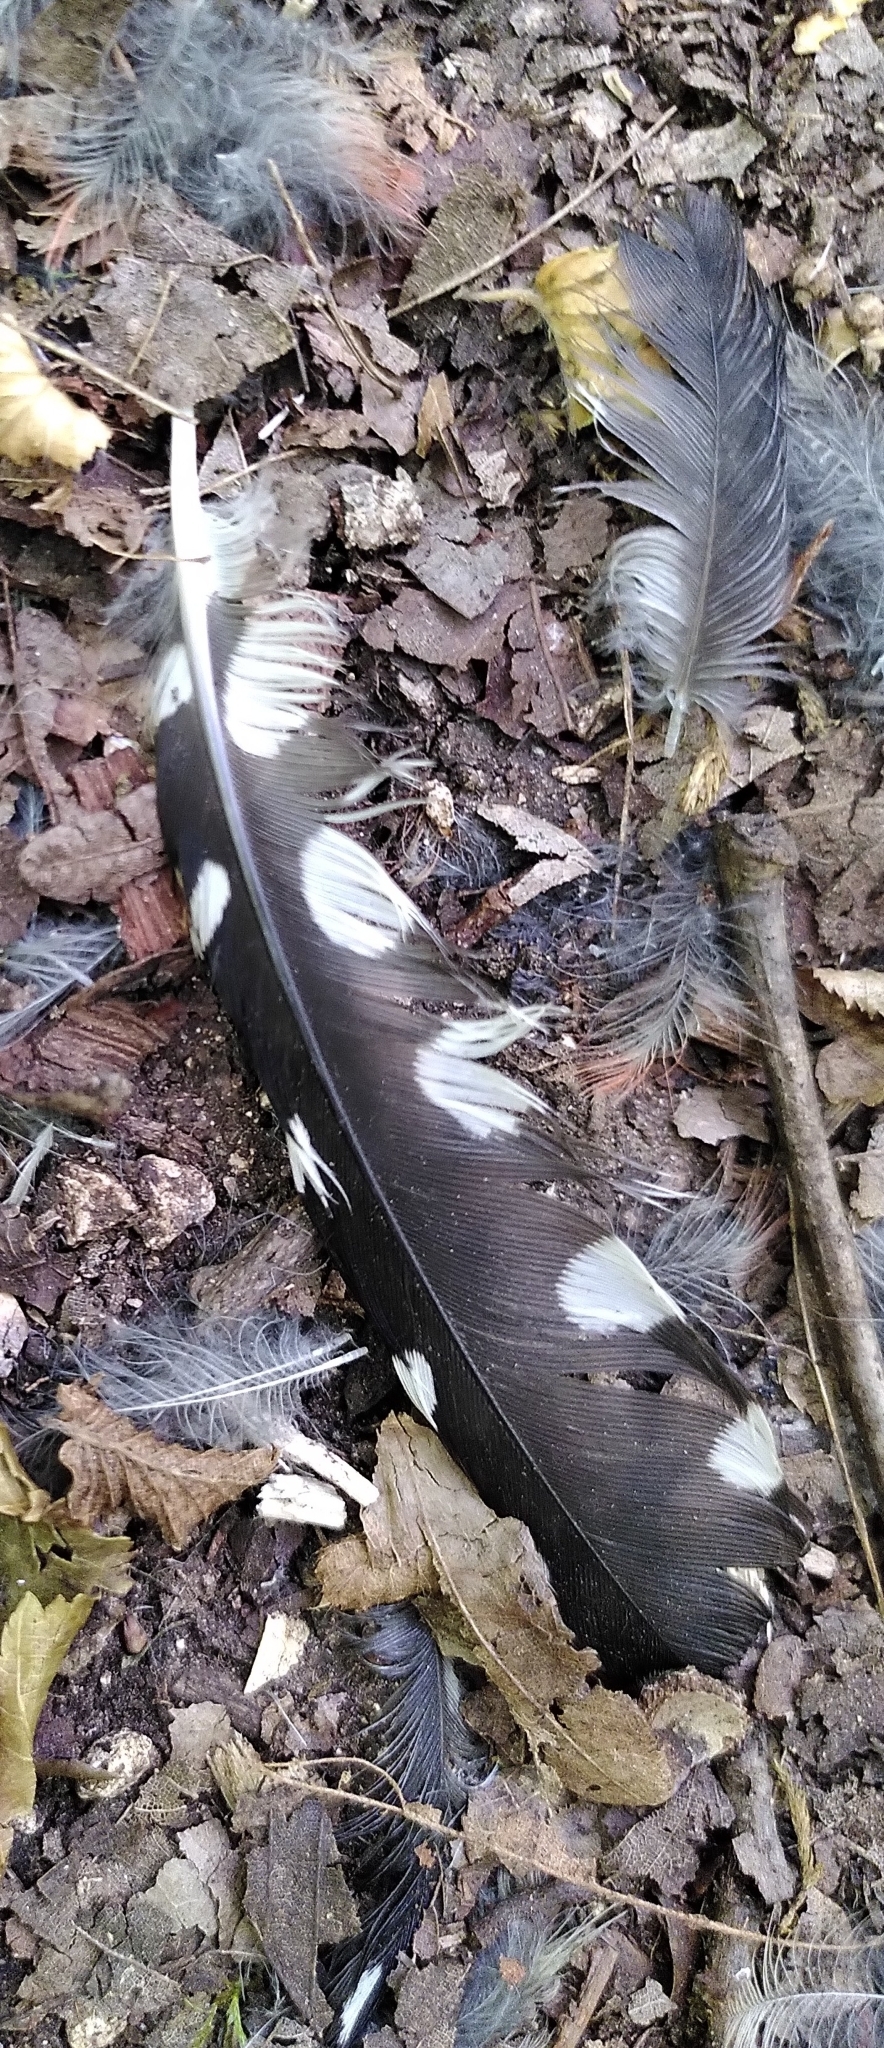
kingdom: Animalia
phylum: Chordata
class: Aves
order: Piciformes
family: Picidae
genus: Dendrocopos
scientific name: Dendrocopos major
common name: Great spotted woodpecker
